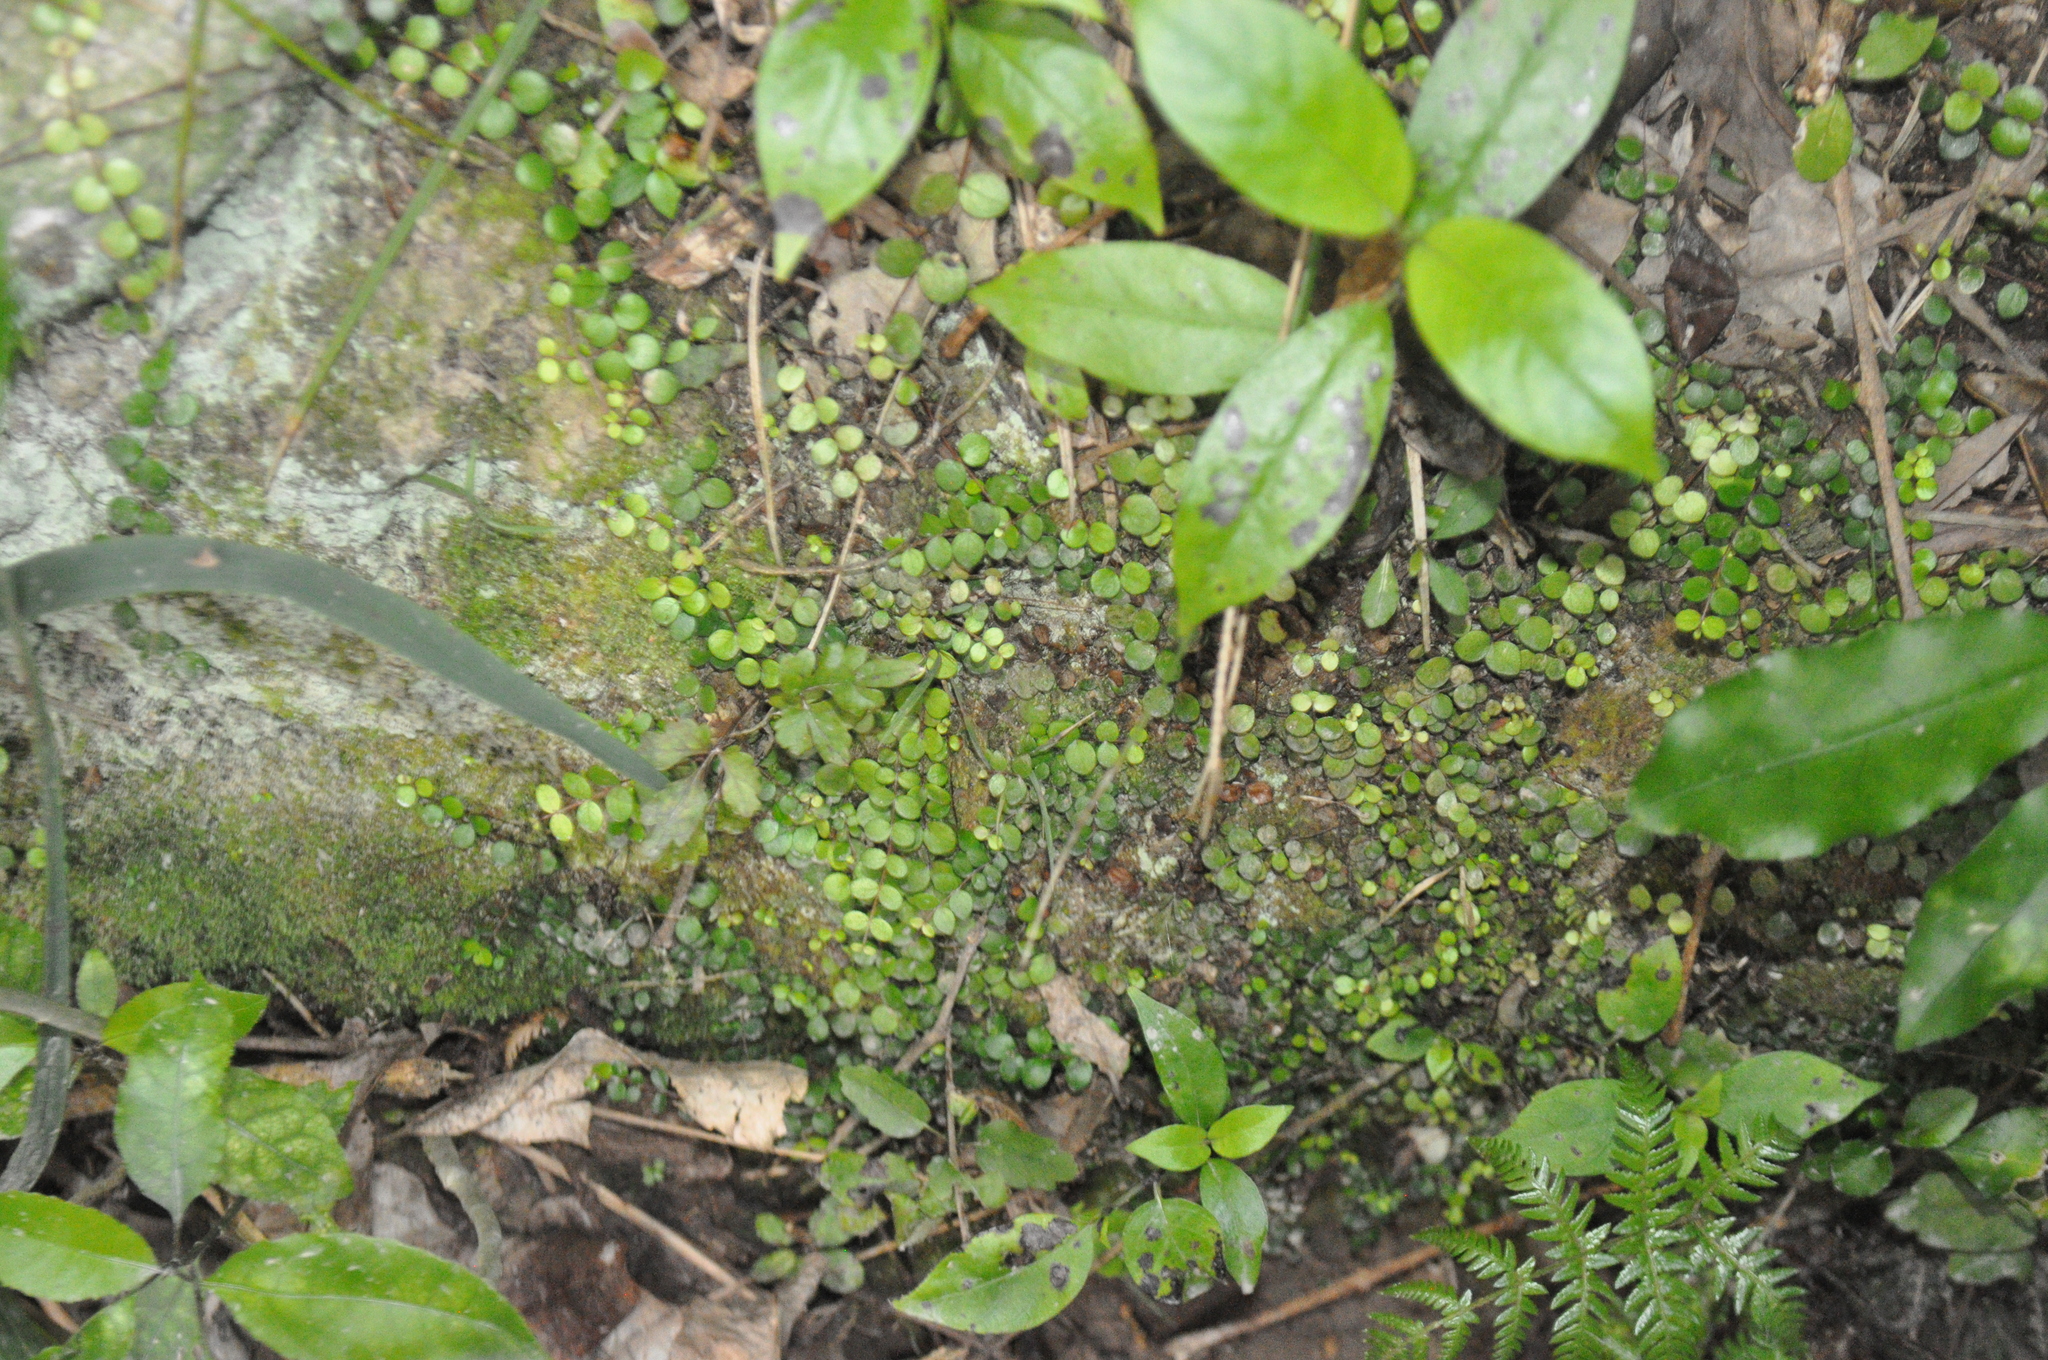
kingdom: Plantae
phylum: Tracheophyta
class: Polypodiopsida
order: Cyatheales
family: Cyatheaceae
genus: Alsophila
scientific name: Alsophila dealbata
